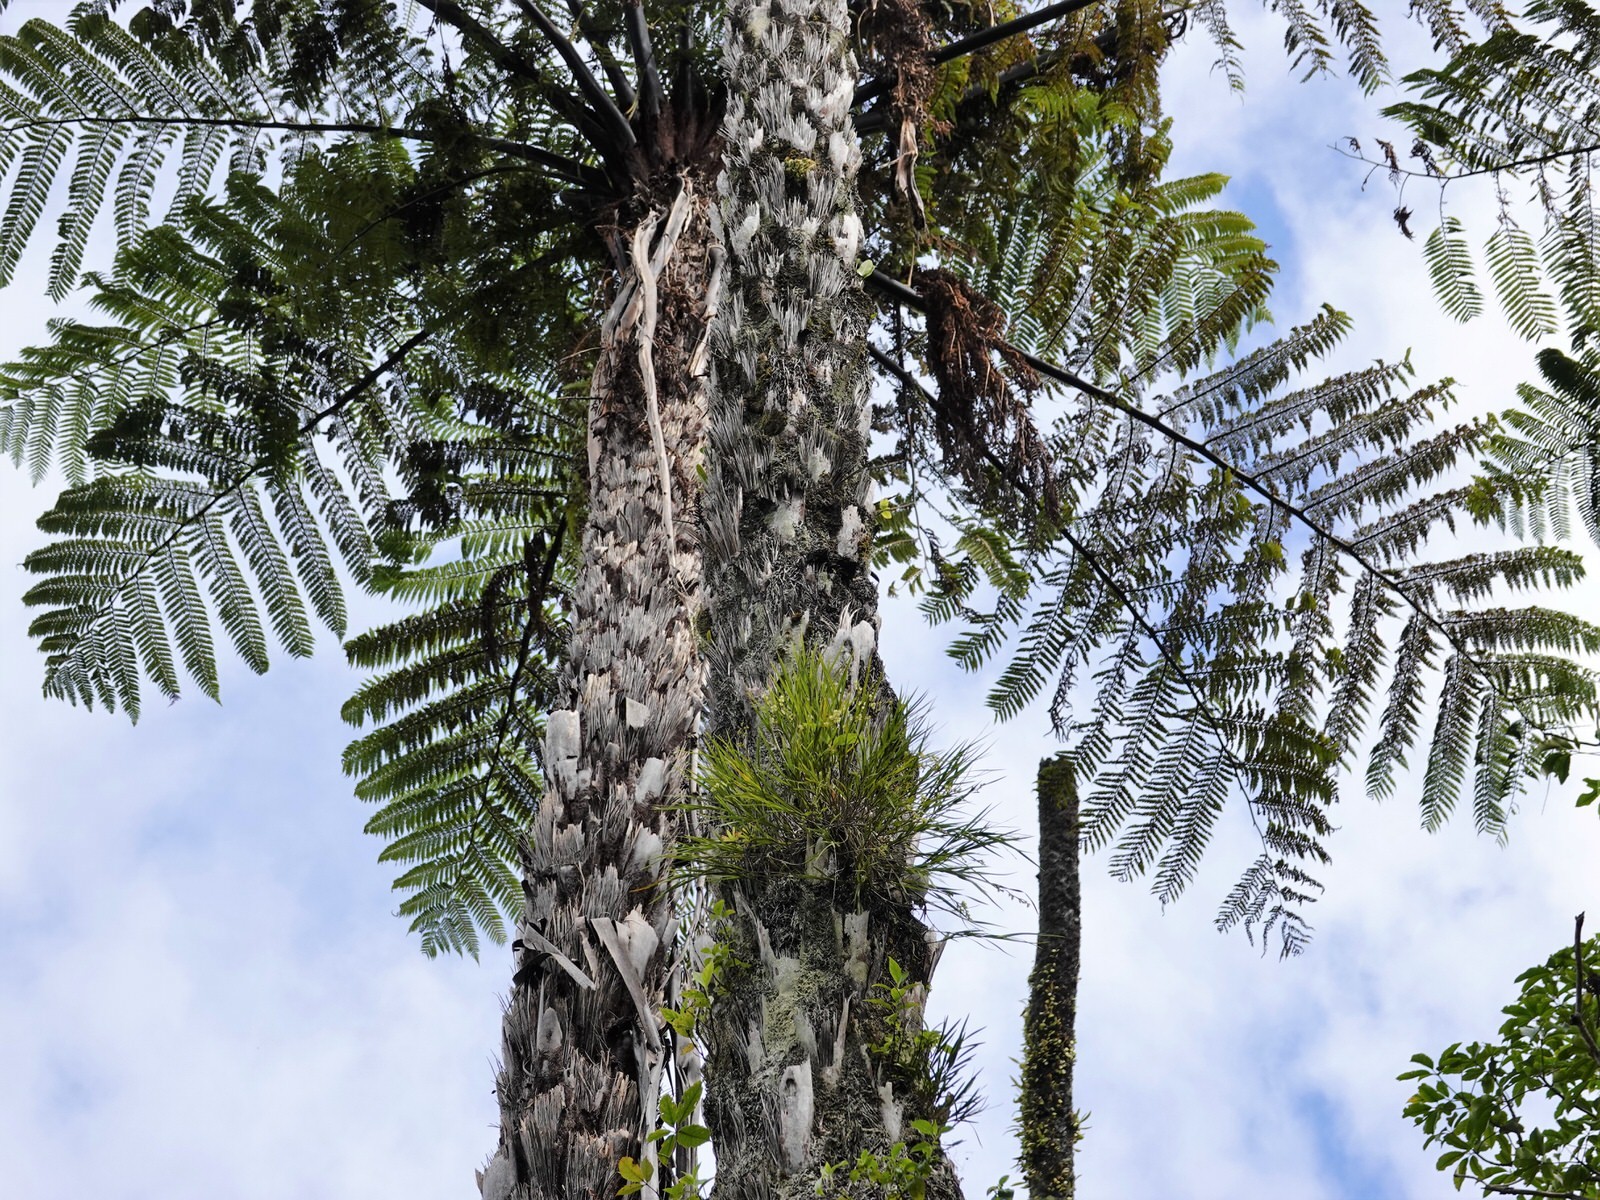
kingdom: Plantae
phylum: Tracheophyta
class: Liliopsida
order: Asparagales
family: Orchidaceae
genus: Earina
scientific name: Earina mucronata
